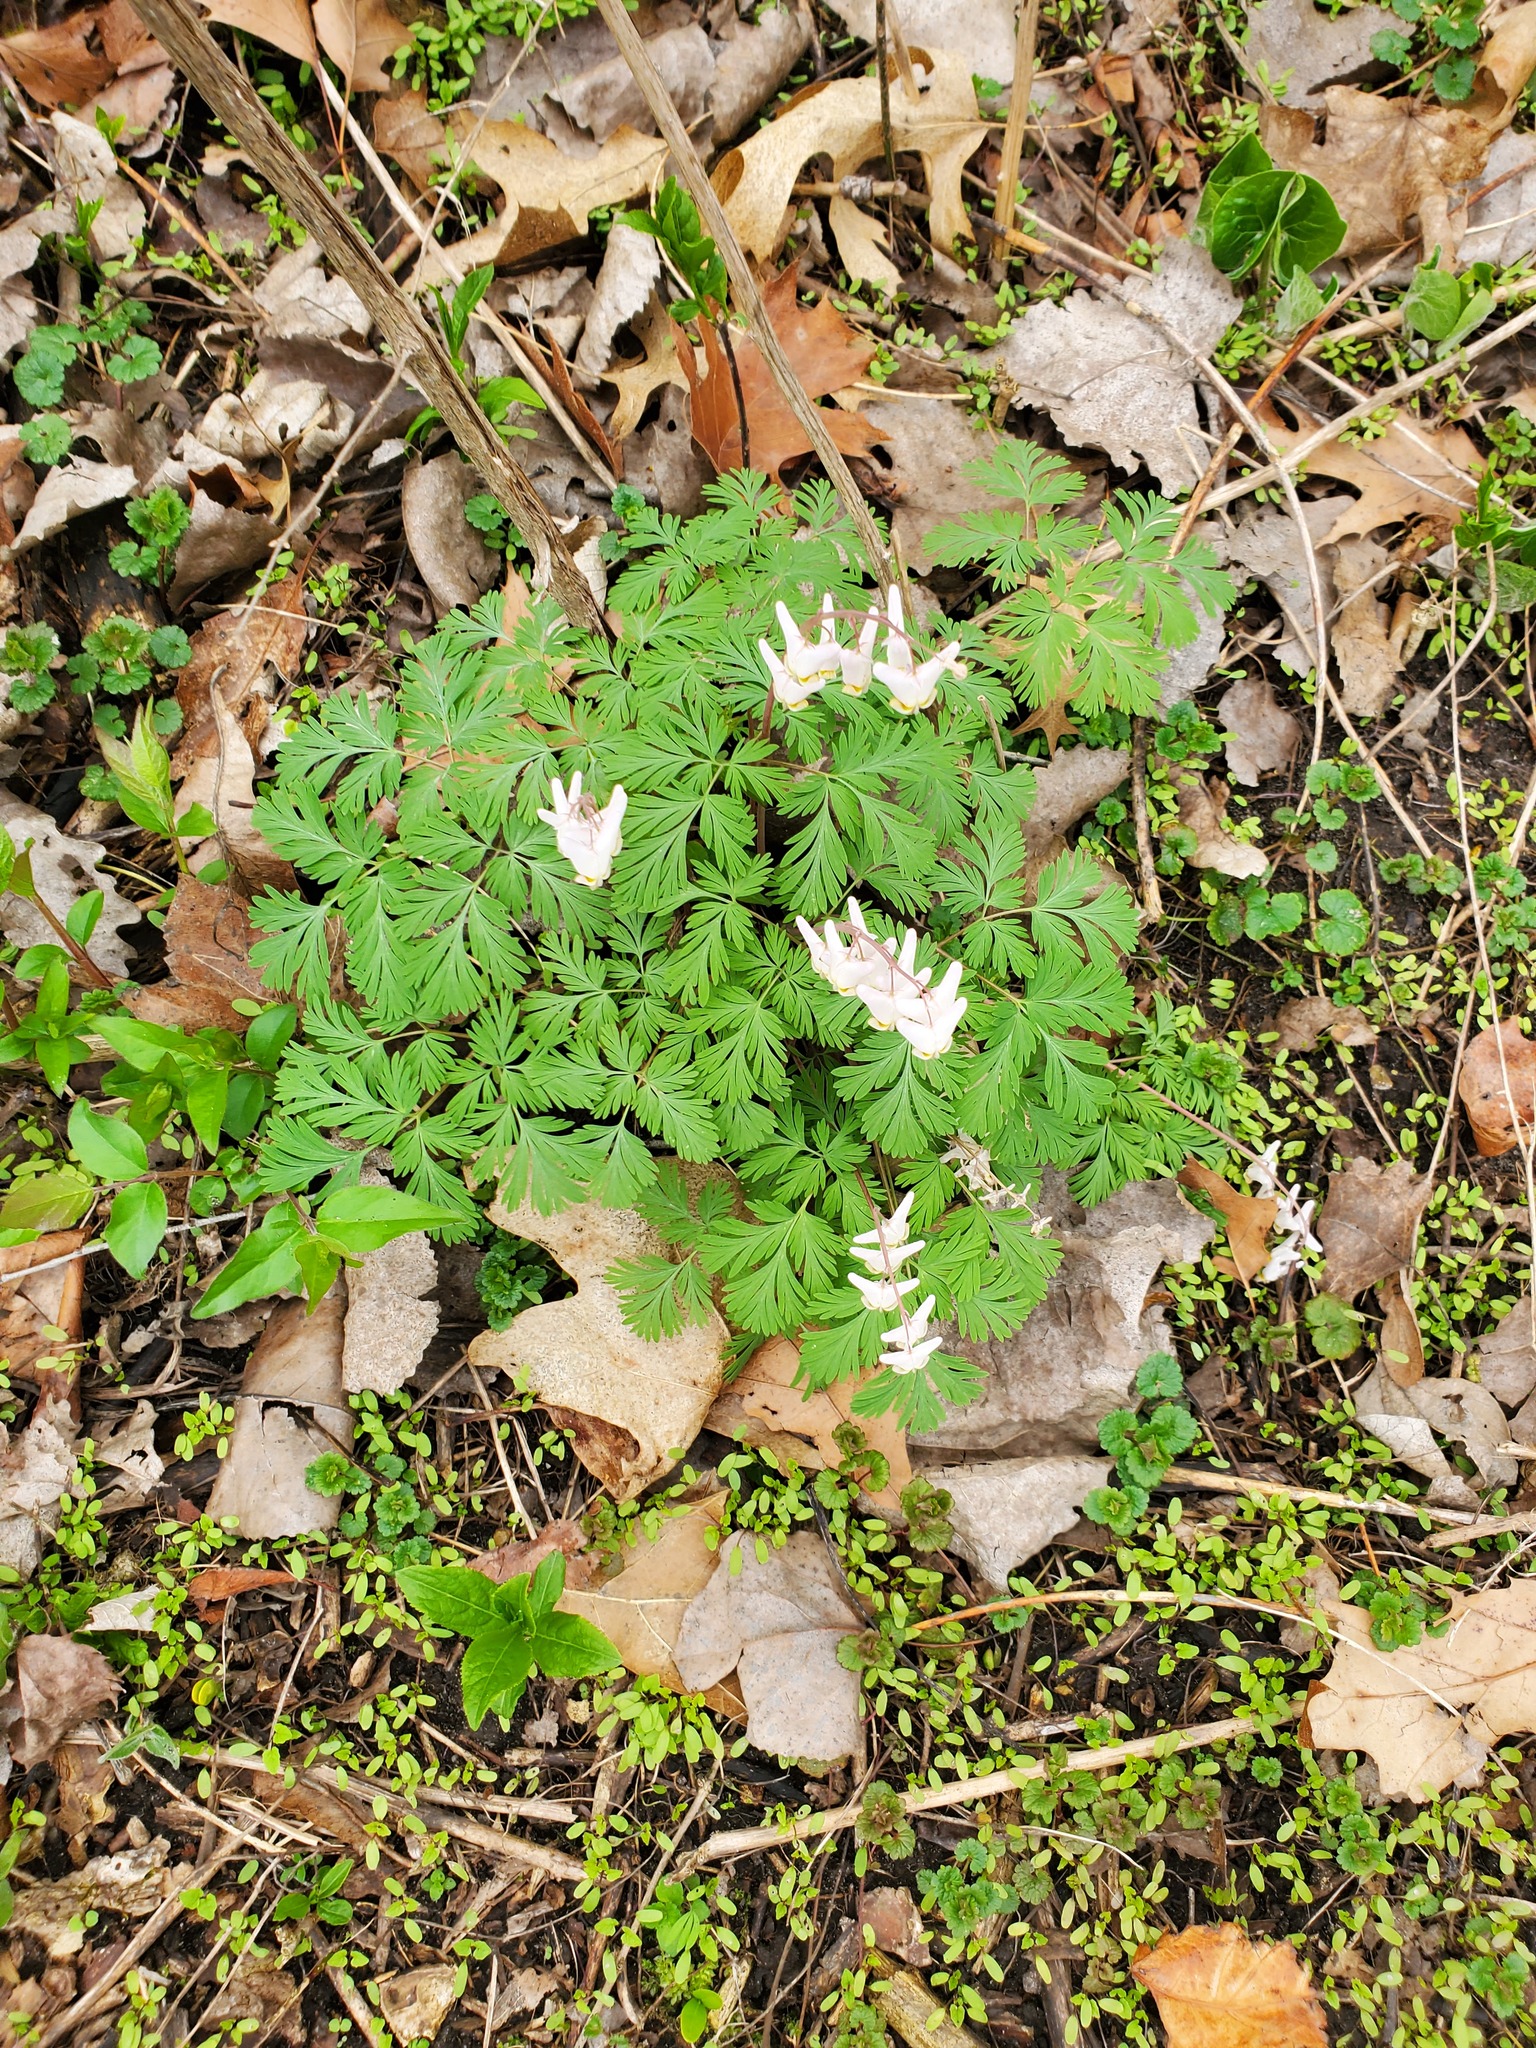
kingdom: Plantae
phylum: Tracheophyta
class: Magnoliopsida
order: Ranunculales
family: Papaveraceae
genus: Dicentra
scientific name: Dicentra cucullaria
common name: Dutchman's breeches
